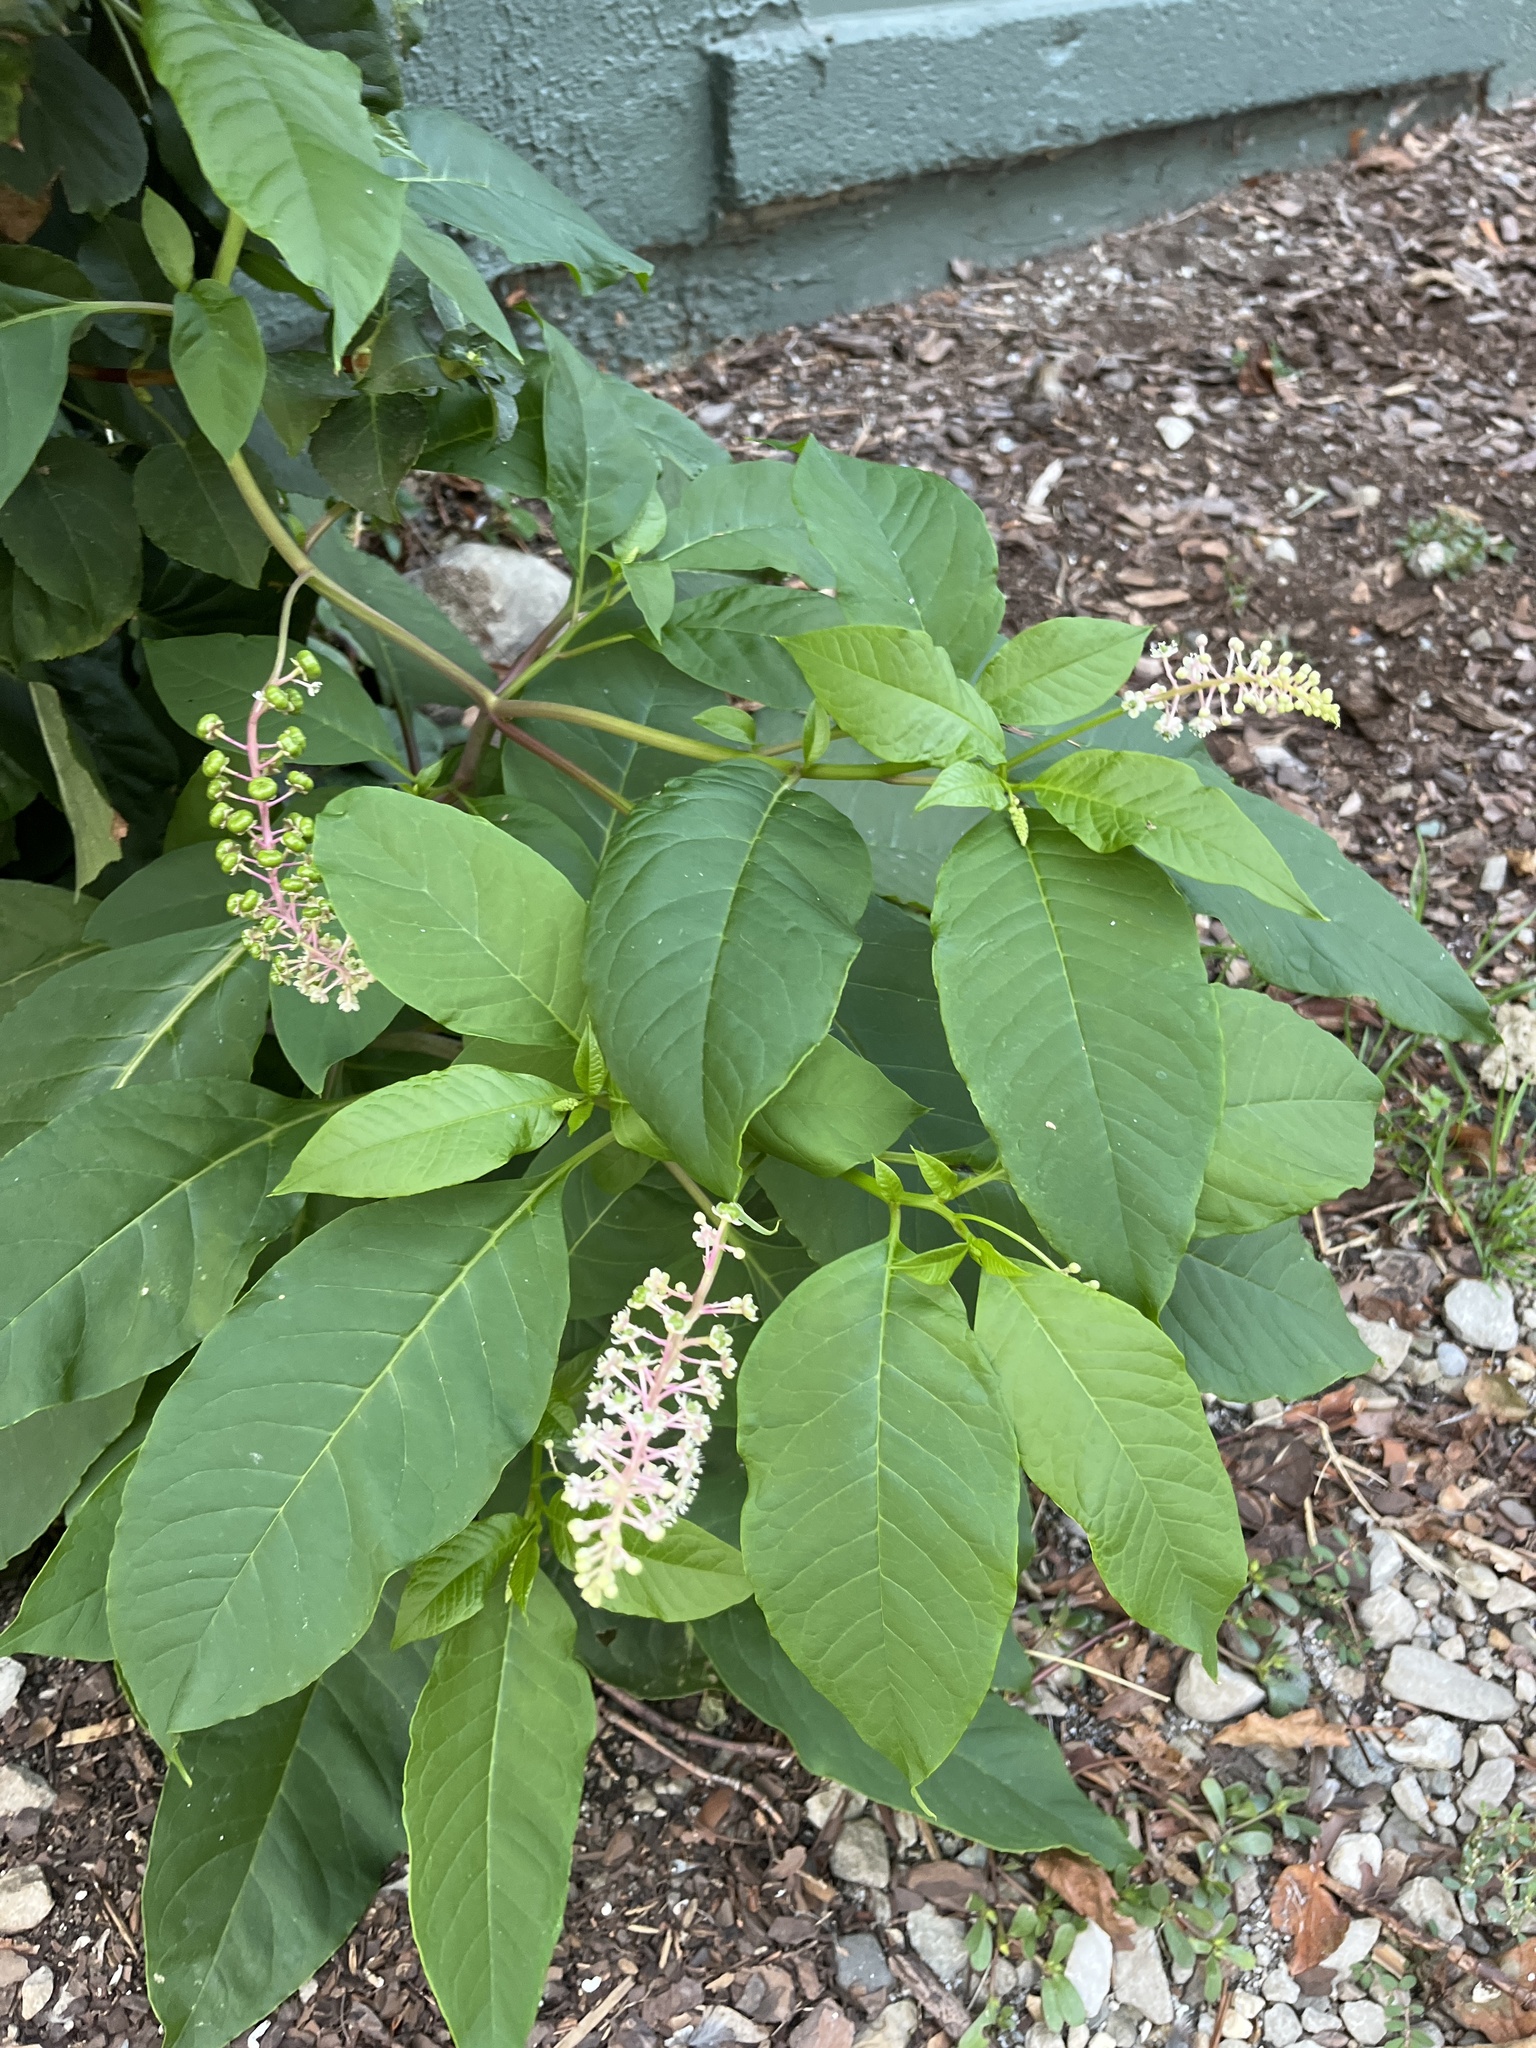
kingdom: Plantae
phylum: Tracheophyta
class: Magnoliopsida
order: Caryophyllales
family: Phytolaccaceae
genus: Phytolacca
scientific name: Phytolacca americana
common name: American pokeweed
